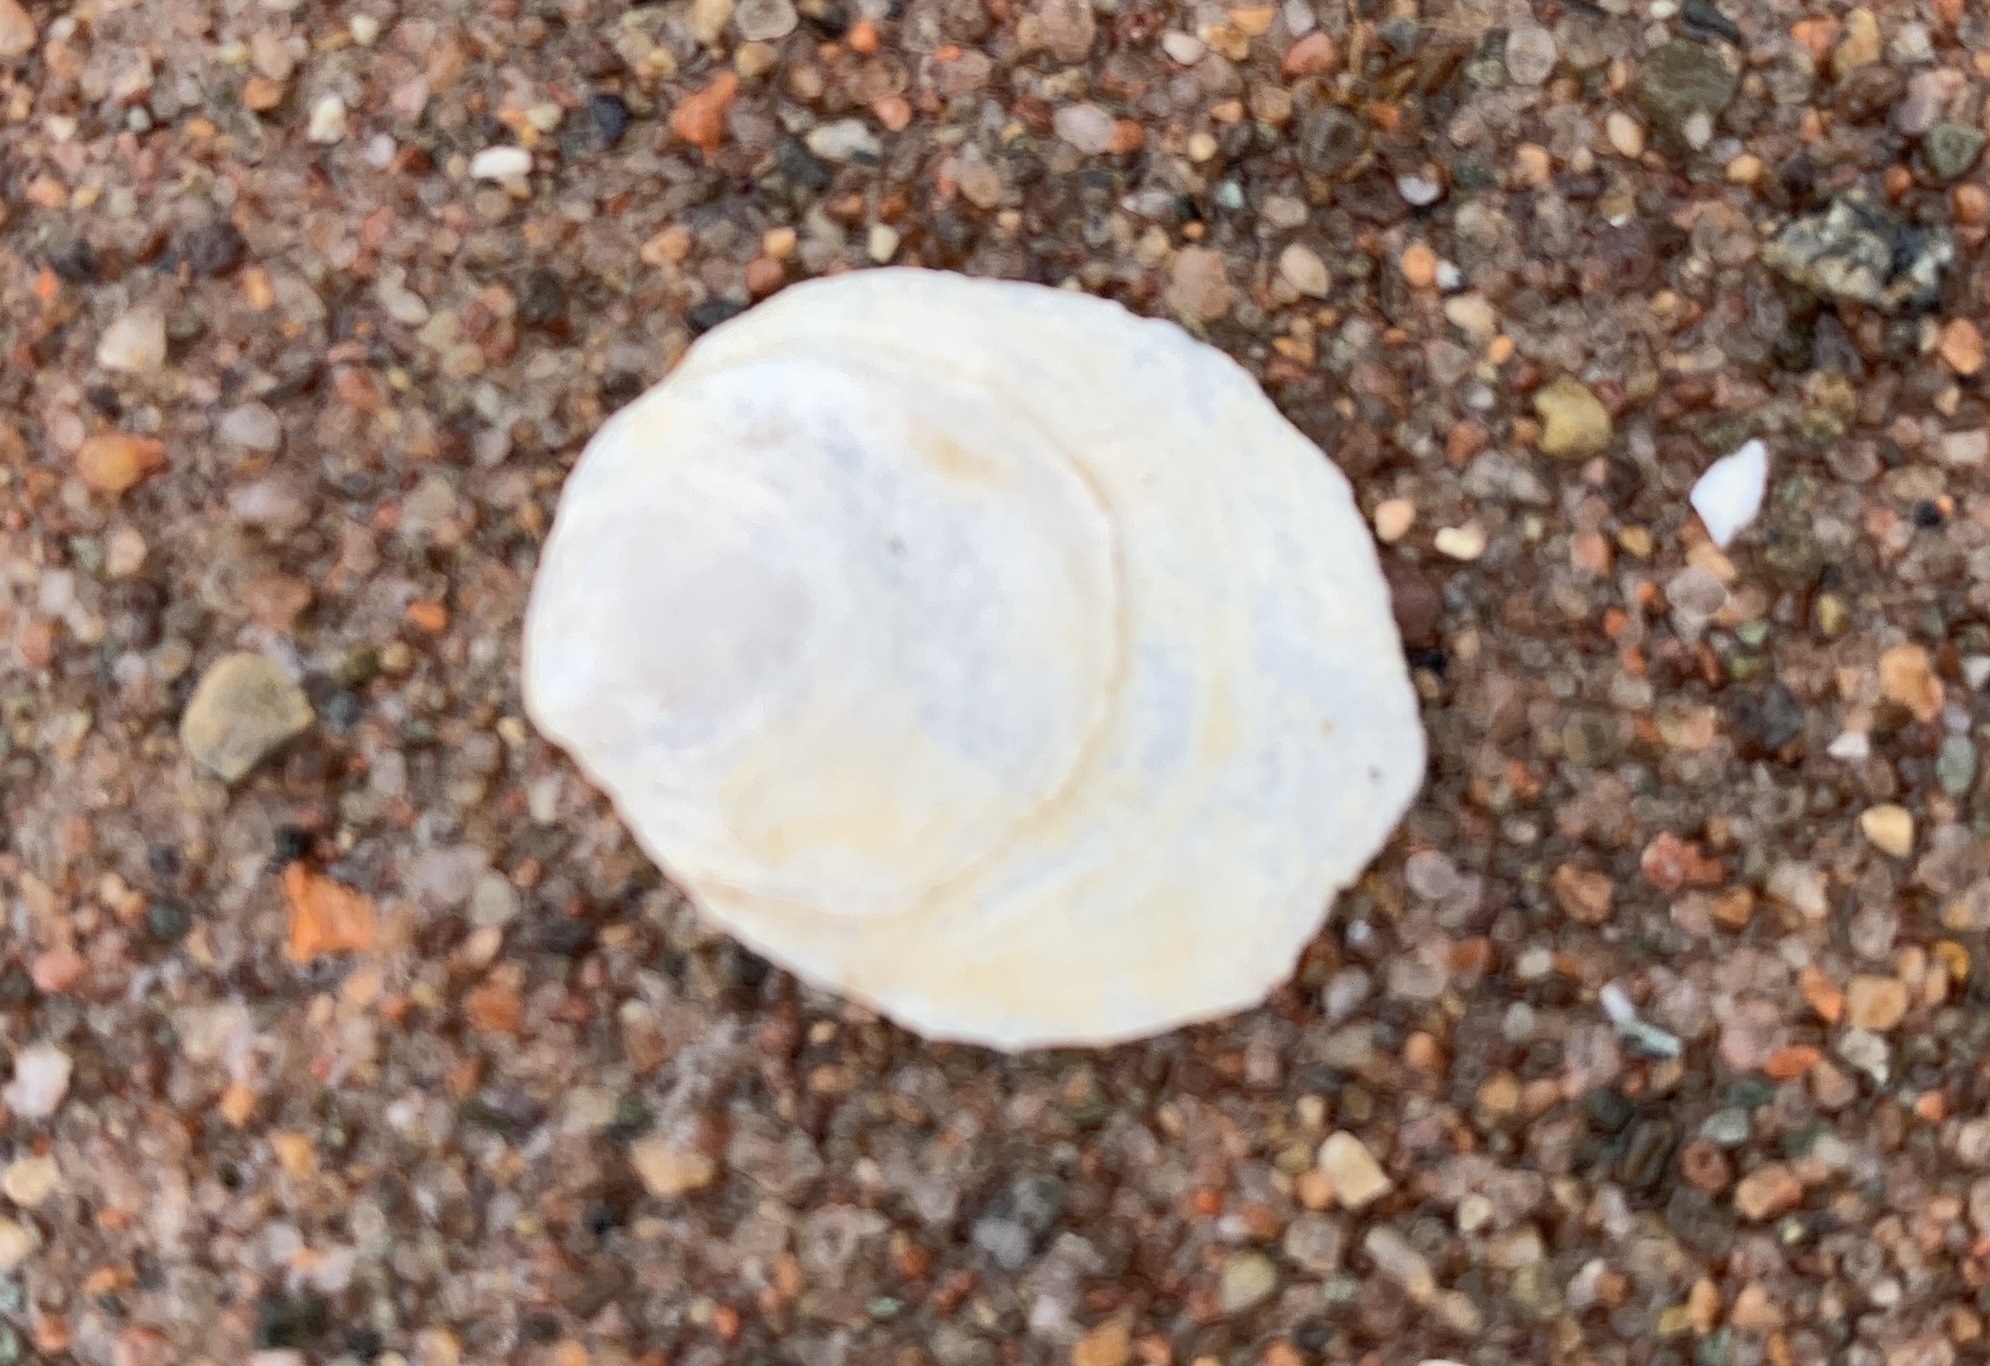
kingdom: Animalia
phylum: Mollusca
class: Gastropoda
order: Littorinimorpha
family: Calyptraeidae
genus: Crepidula
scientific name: Crepidula plana
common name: Eastern white slippersnail
